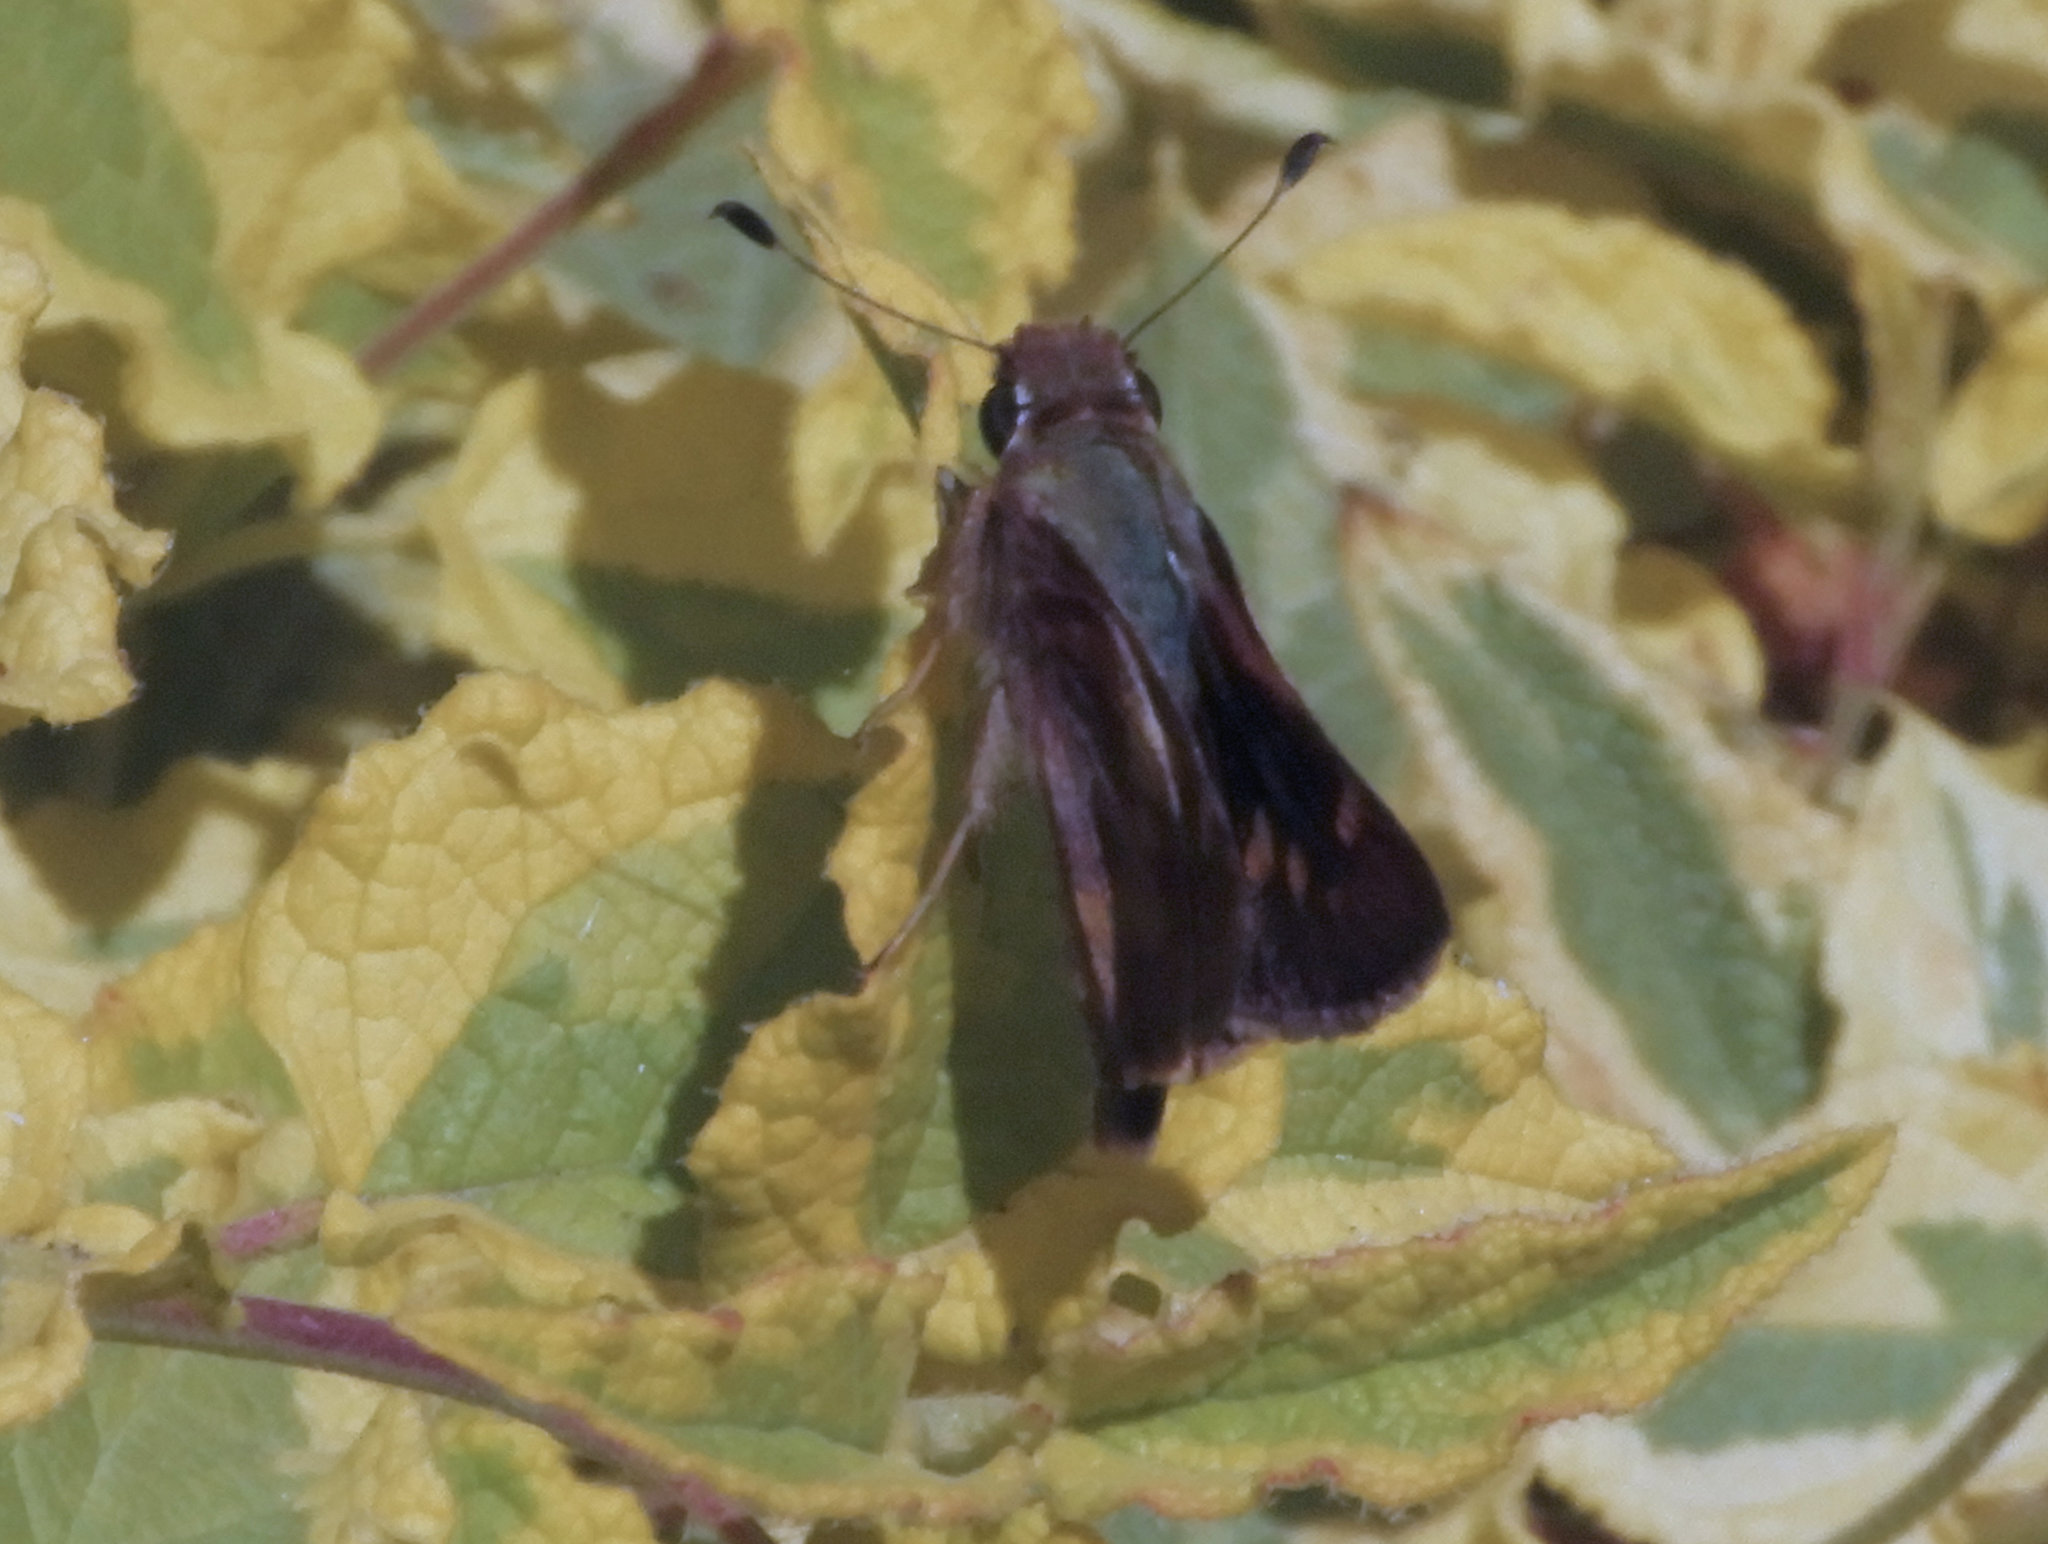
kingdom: Animalia
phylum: Arthropoda
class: Insecta
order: Lepidoptera
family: Hesperiidae
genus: Lon
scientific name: Lon melane
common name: Umber skipper
